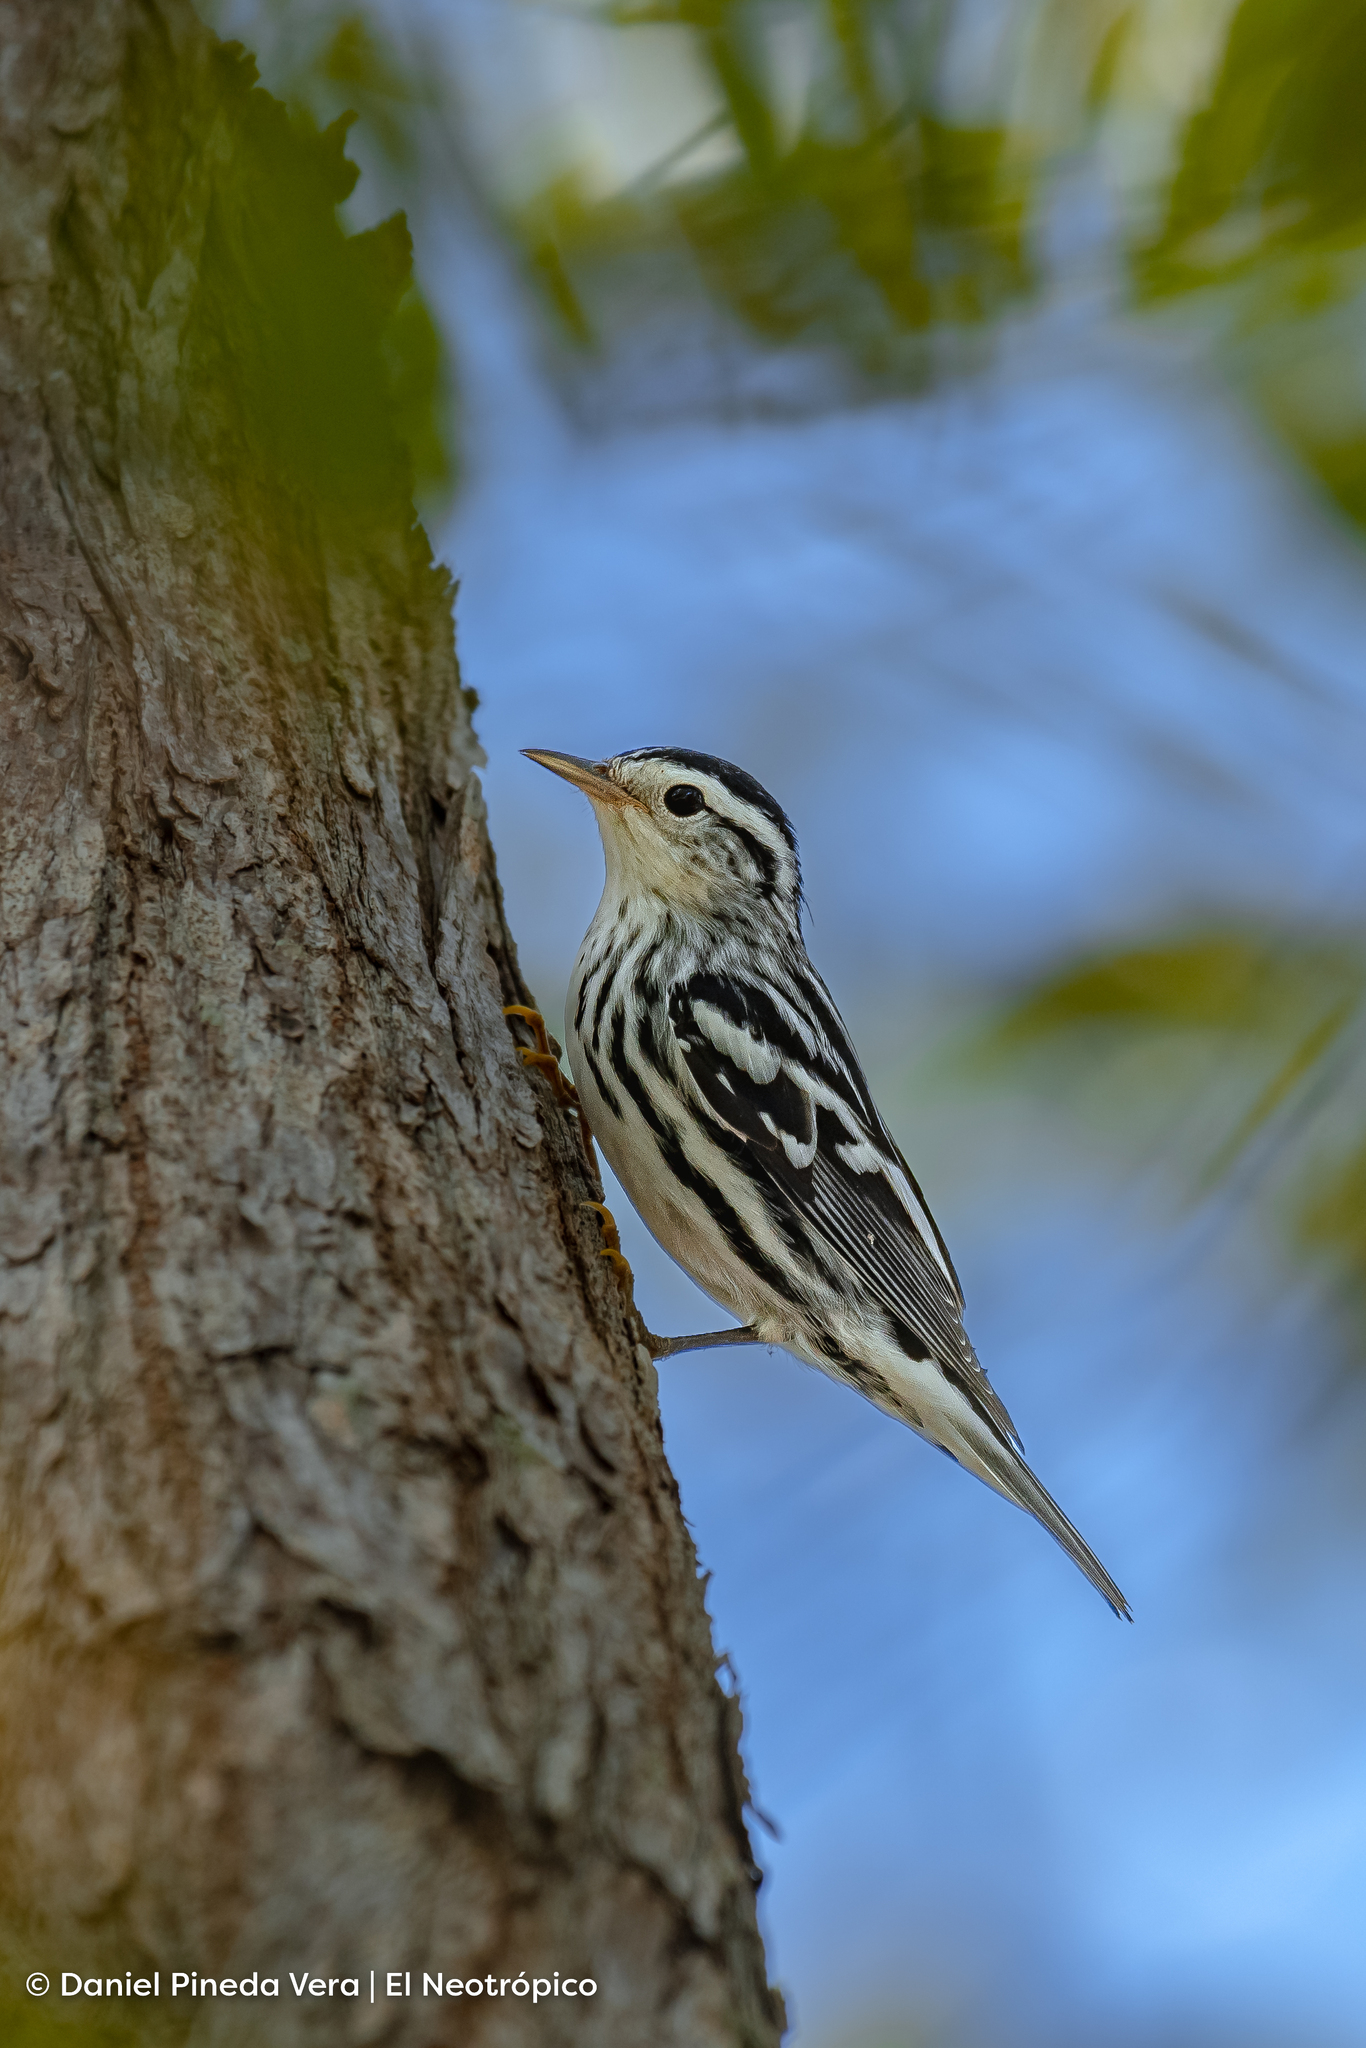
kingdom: Animalia
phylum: Chordata
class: Aves
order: Passeriformes
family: Parulidae
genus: Mniotilta
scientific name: Mniotilta varia
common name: Black-and-white warbler
